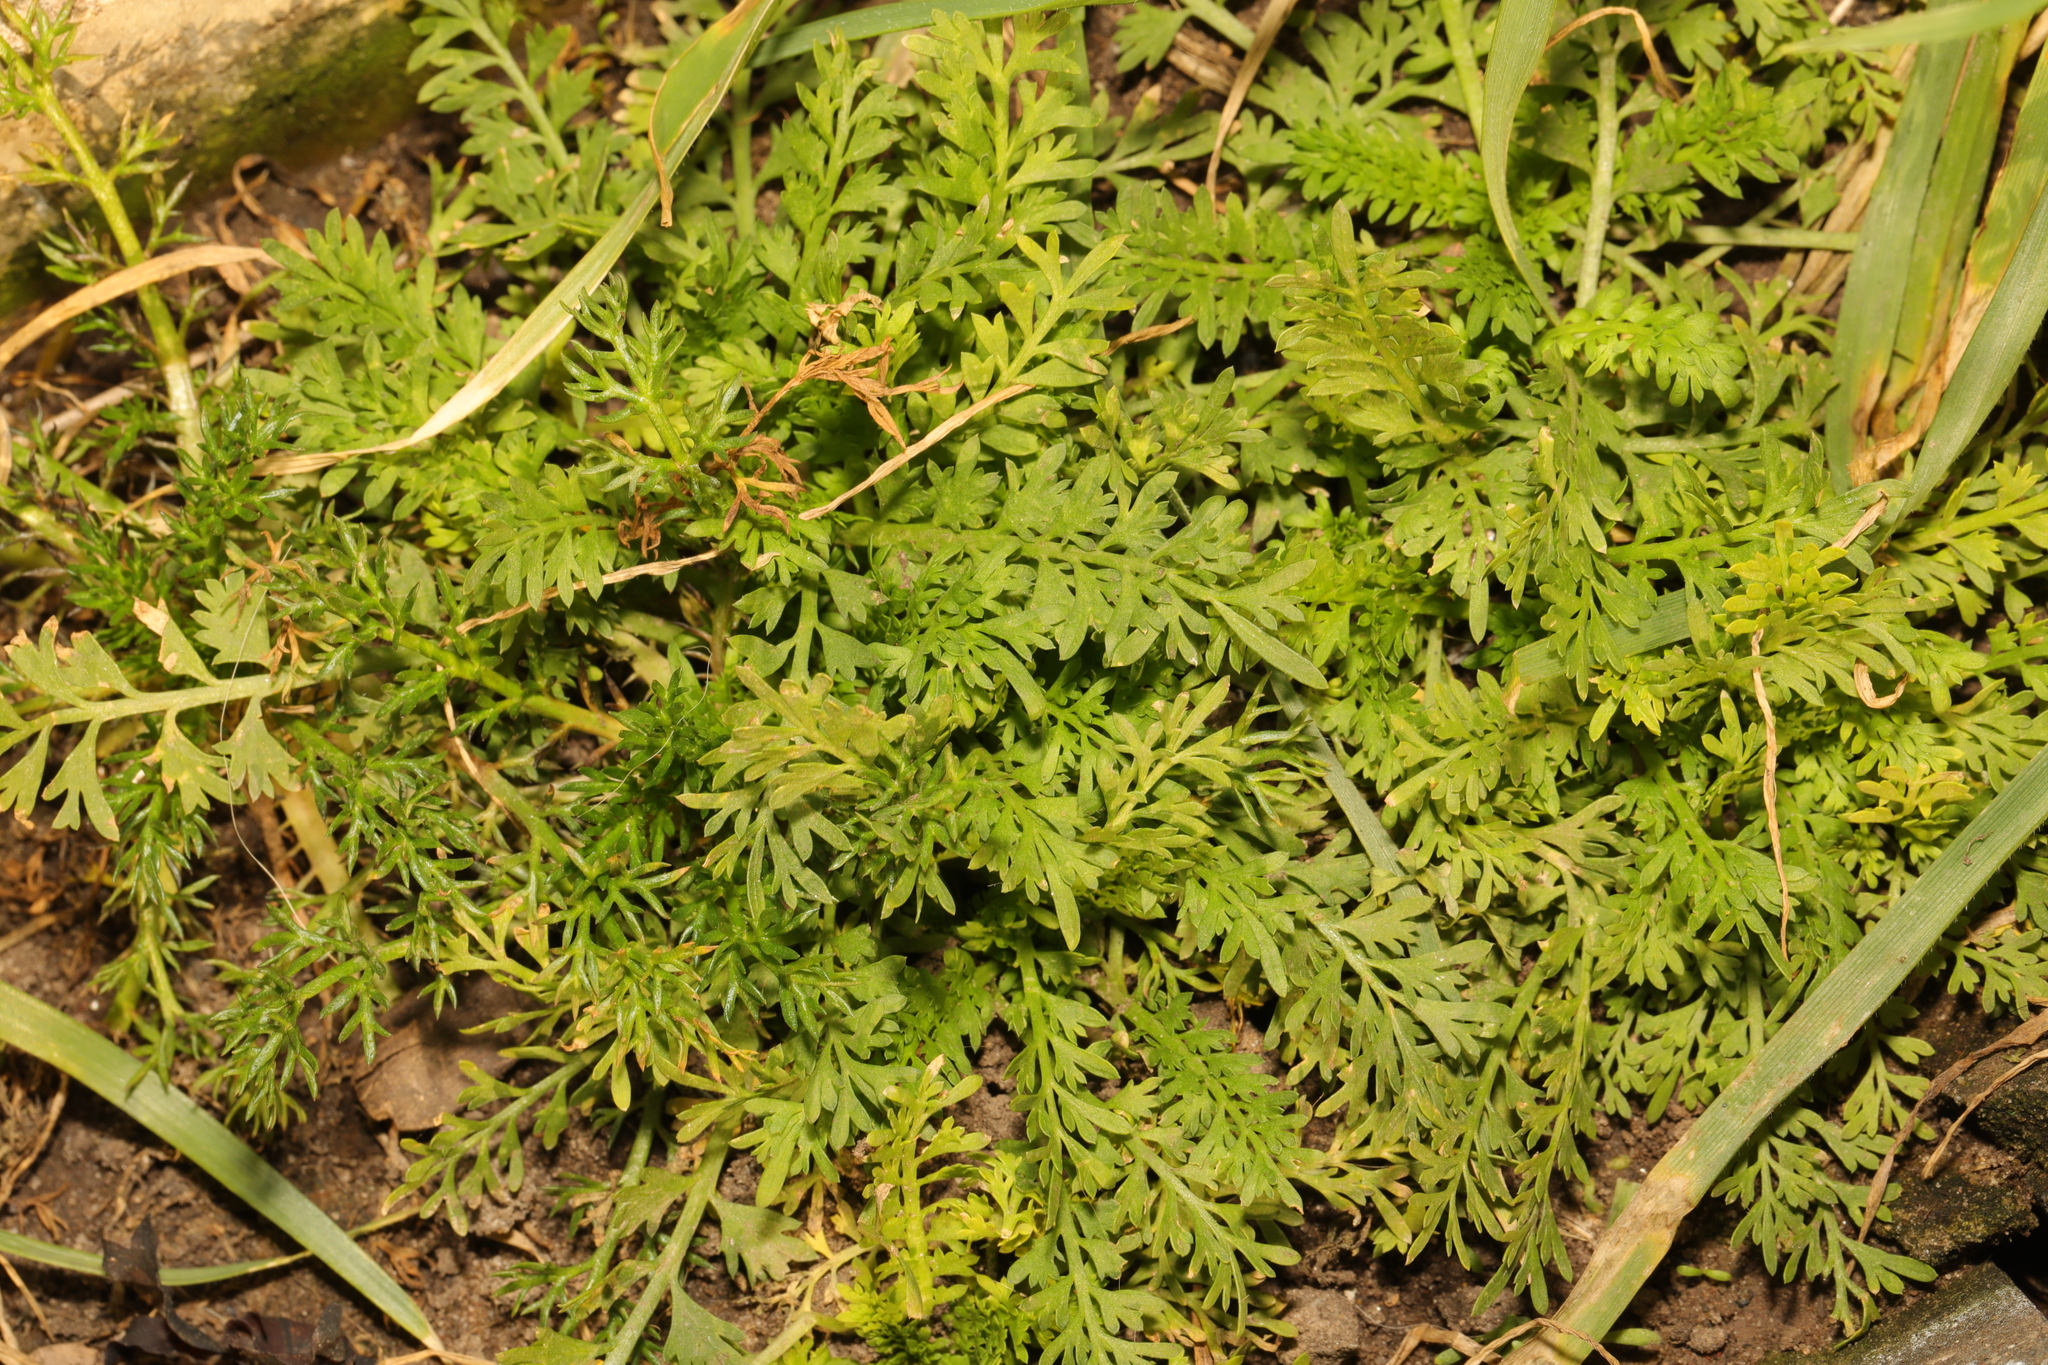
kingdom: Plantae
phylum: Tracheophyta
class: Magnoliopsida
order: Brassicales
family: Brassicaceae
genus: Lepidium
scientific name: Lepidium didymum
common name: Lesser swinecress
